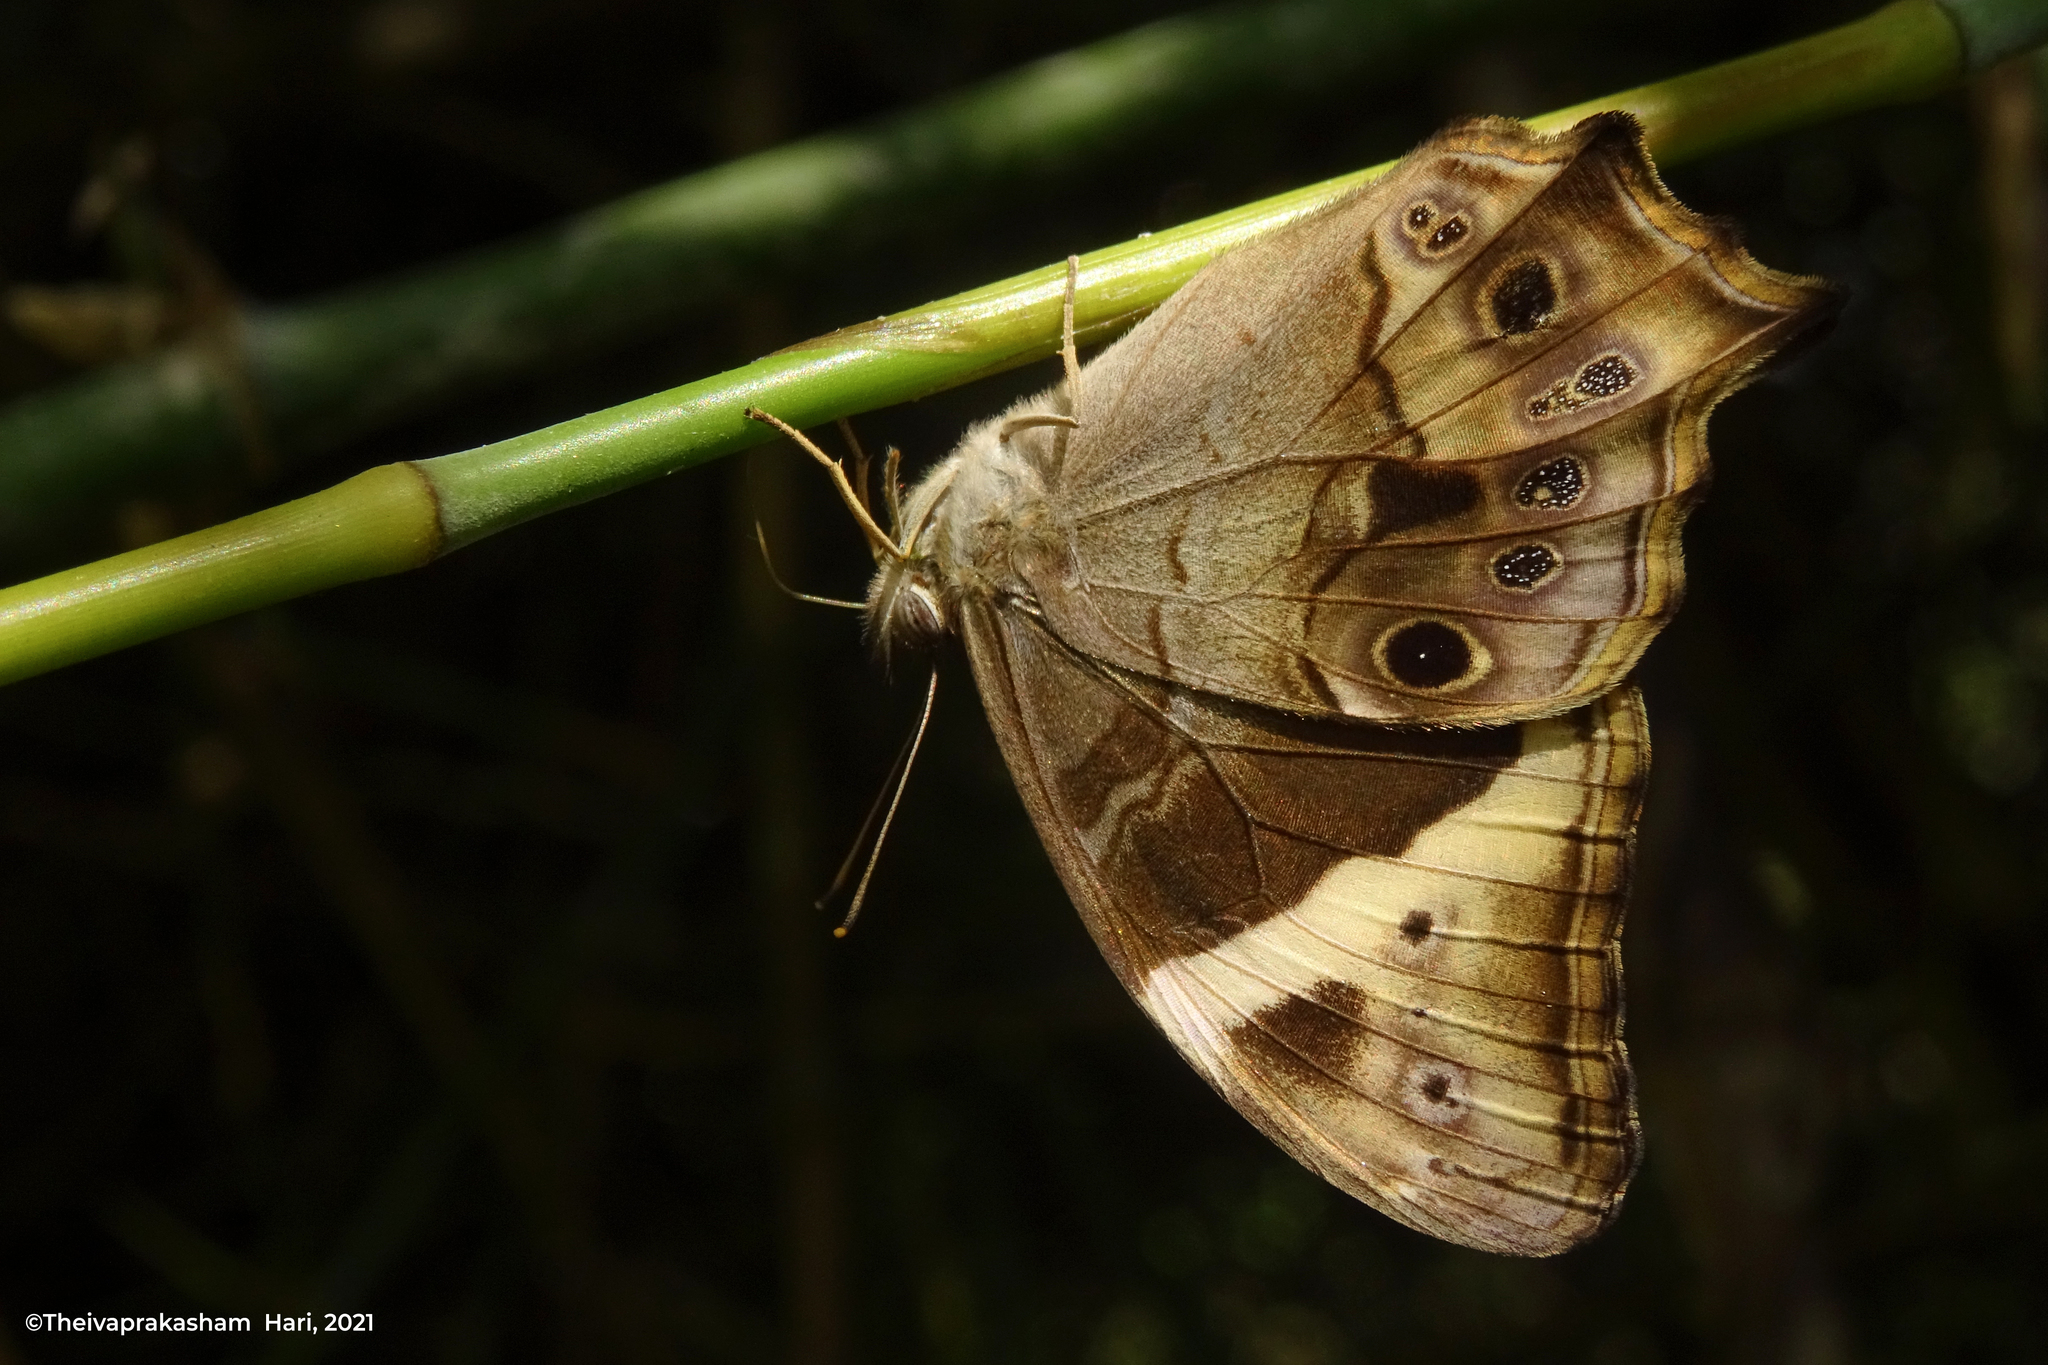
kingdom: Animalia
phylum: Arthropoda
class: Insecta
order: Lepidoptera
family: Nymphalidae
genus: Lethe
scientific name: Lethe drypetis
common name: Tamil treebrown
